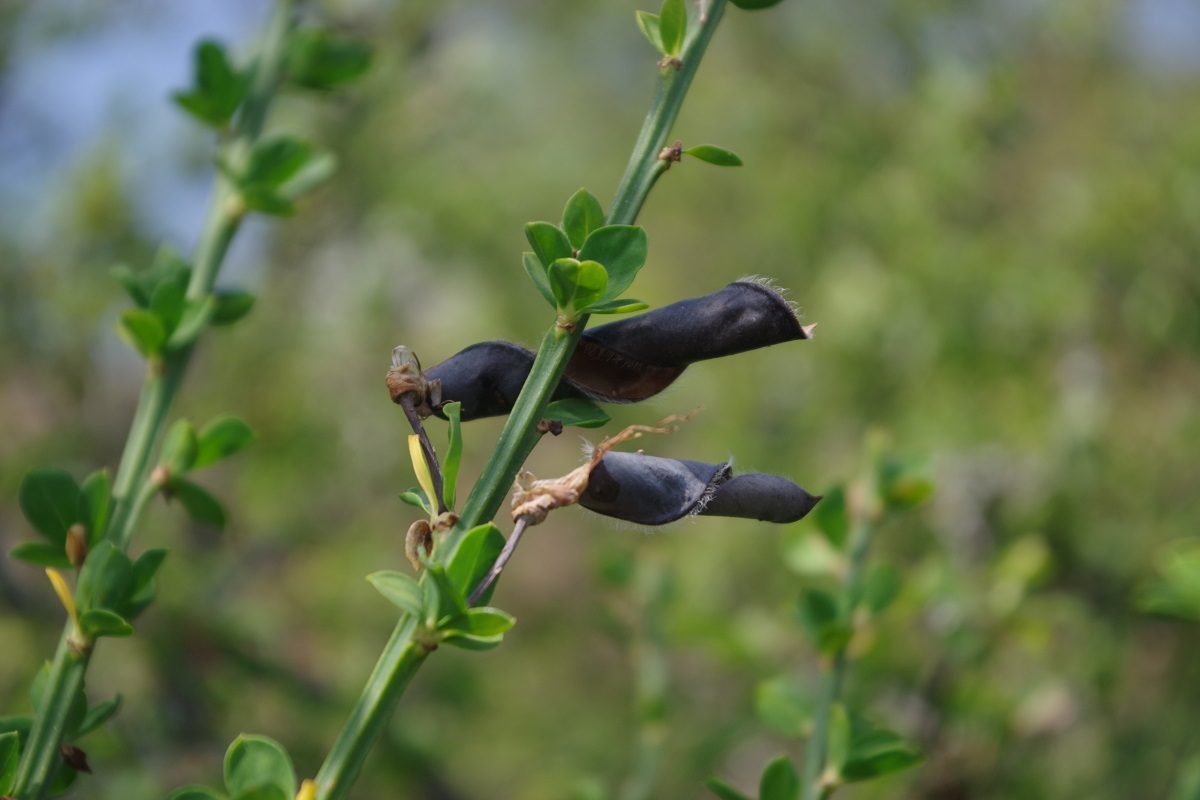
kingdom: Plantae
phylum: Tracheophyta
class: Magnoliopsida
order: Fabales
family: Fabaceae
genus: Cytisus
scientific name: Cytisus scoparius
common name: Scotch broom
